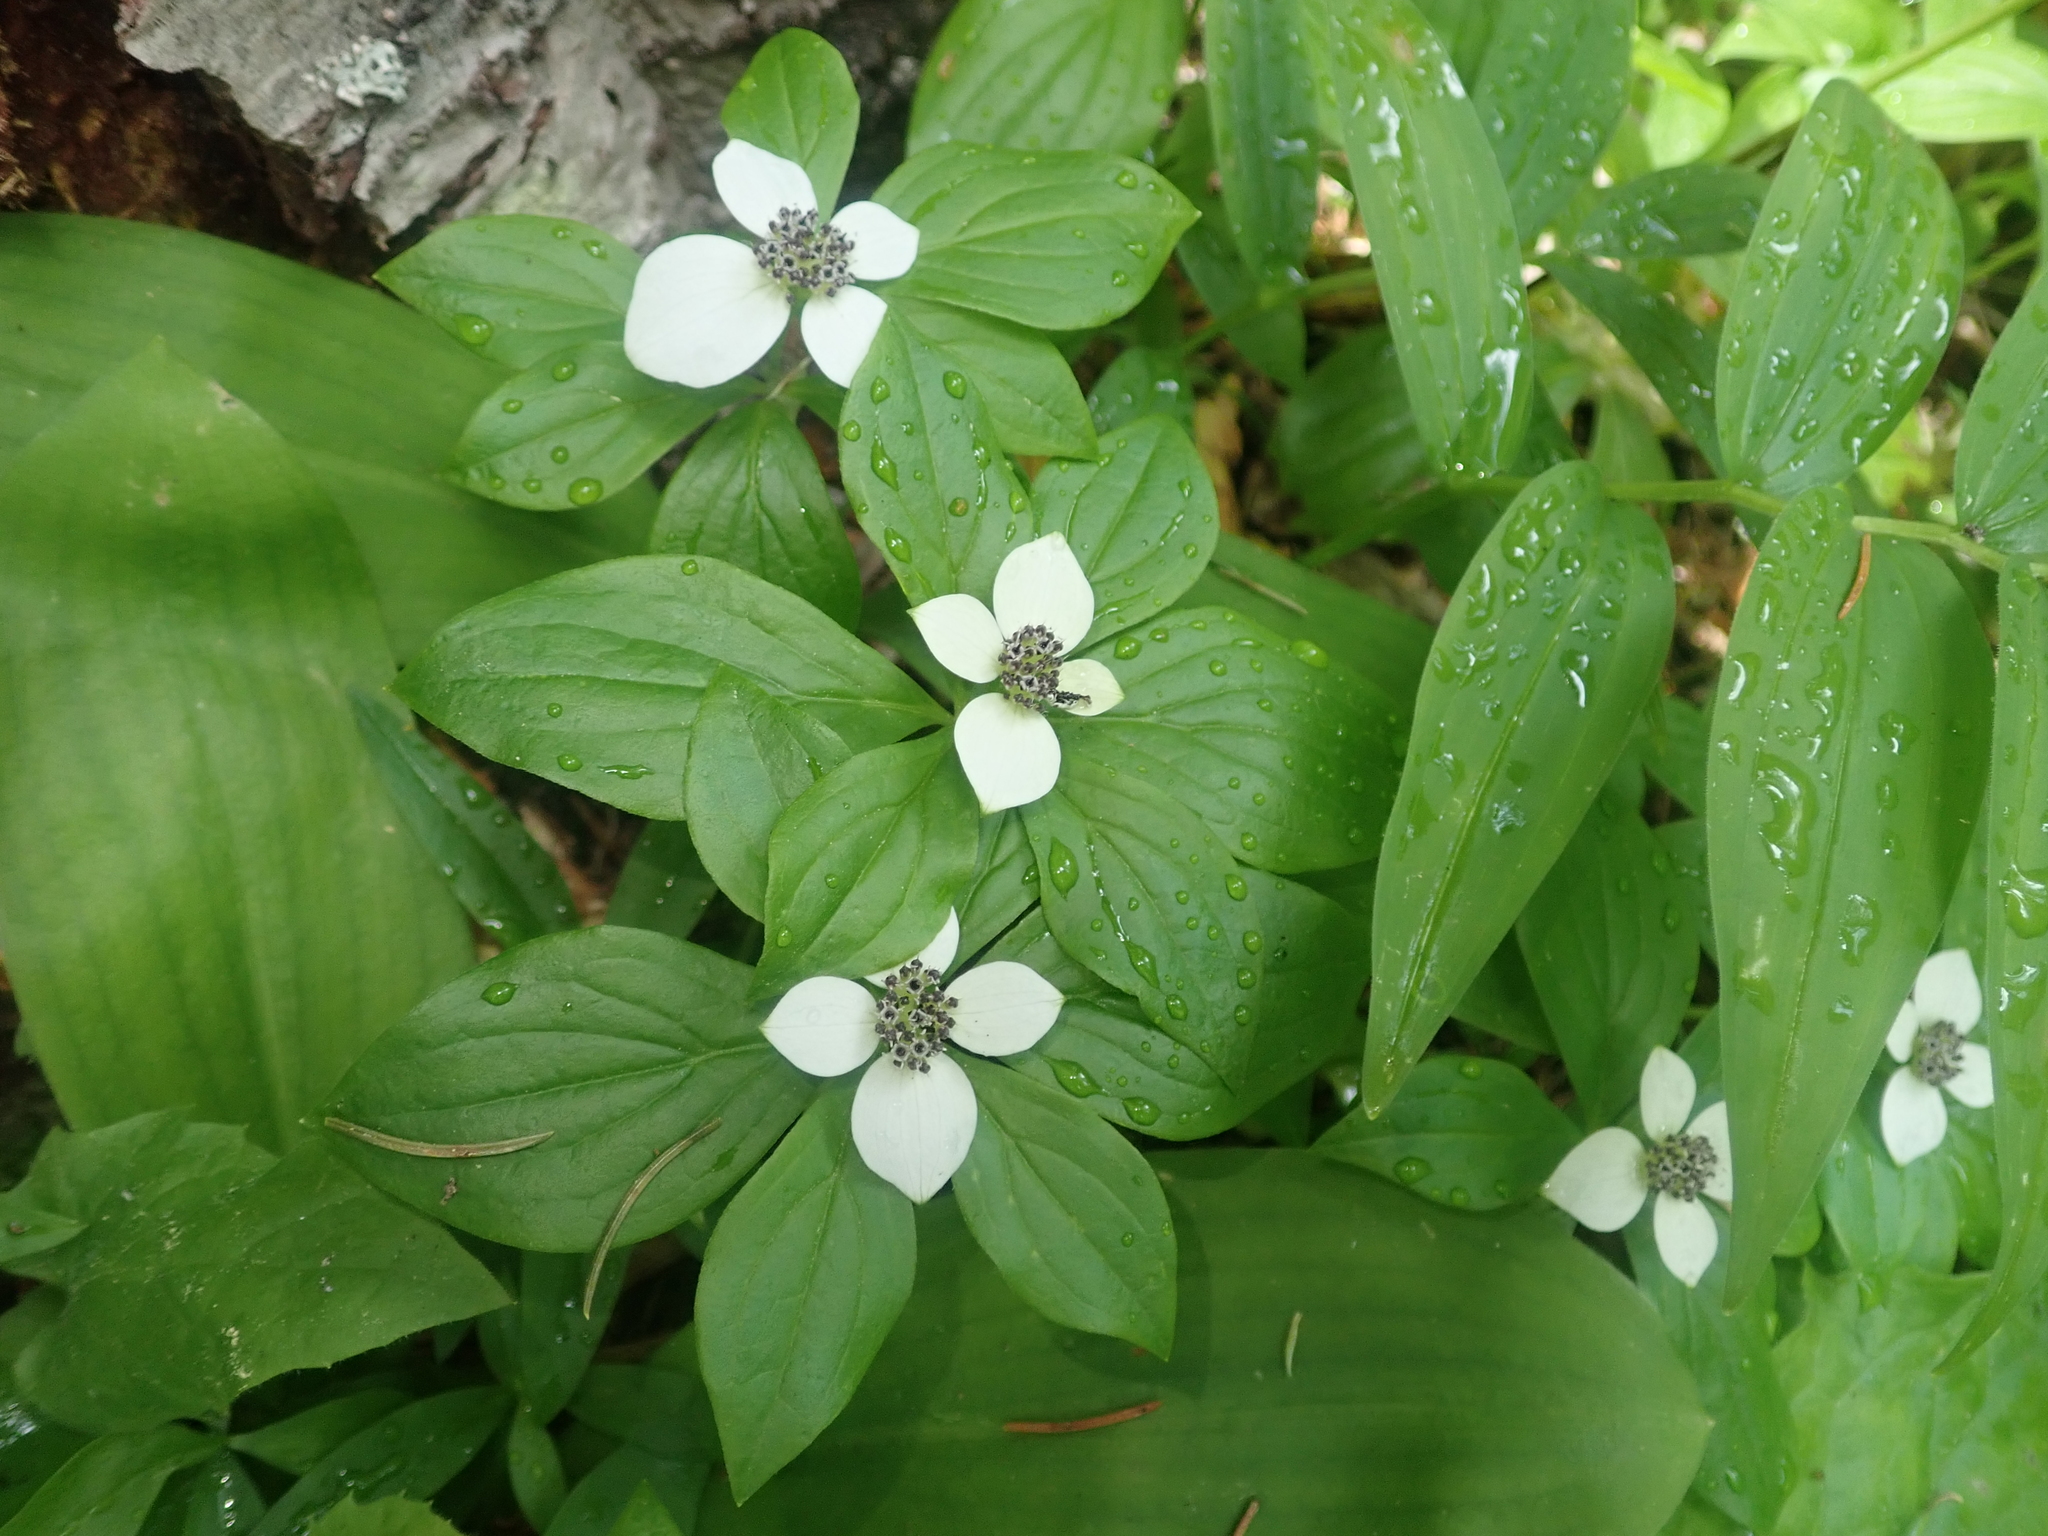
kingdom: Plantae
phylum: Tracheophyta
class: Magnoliopsida
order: Cornales
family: Cornaceae
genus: Cornus
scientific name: Cornus unalaschkensis
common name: Alaska bunchberry
